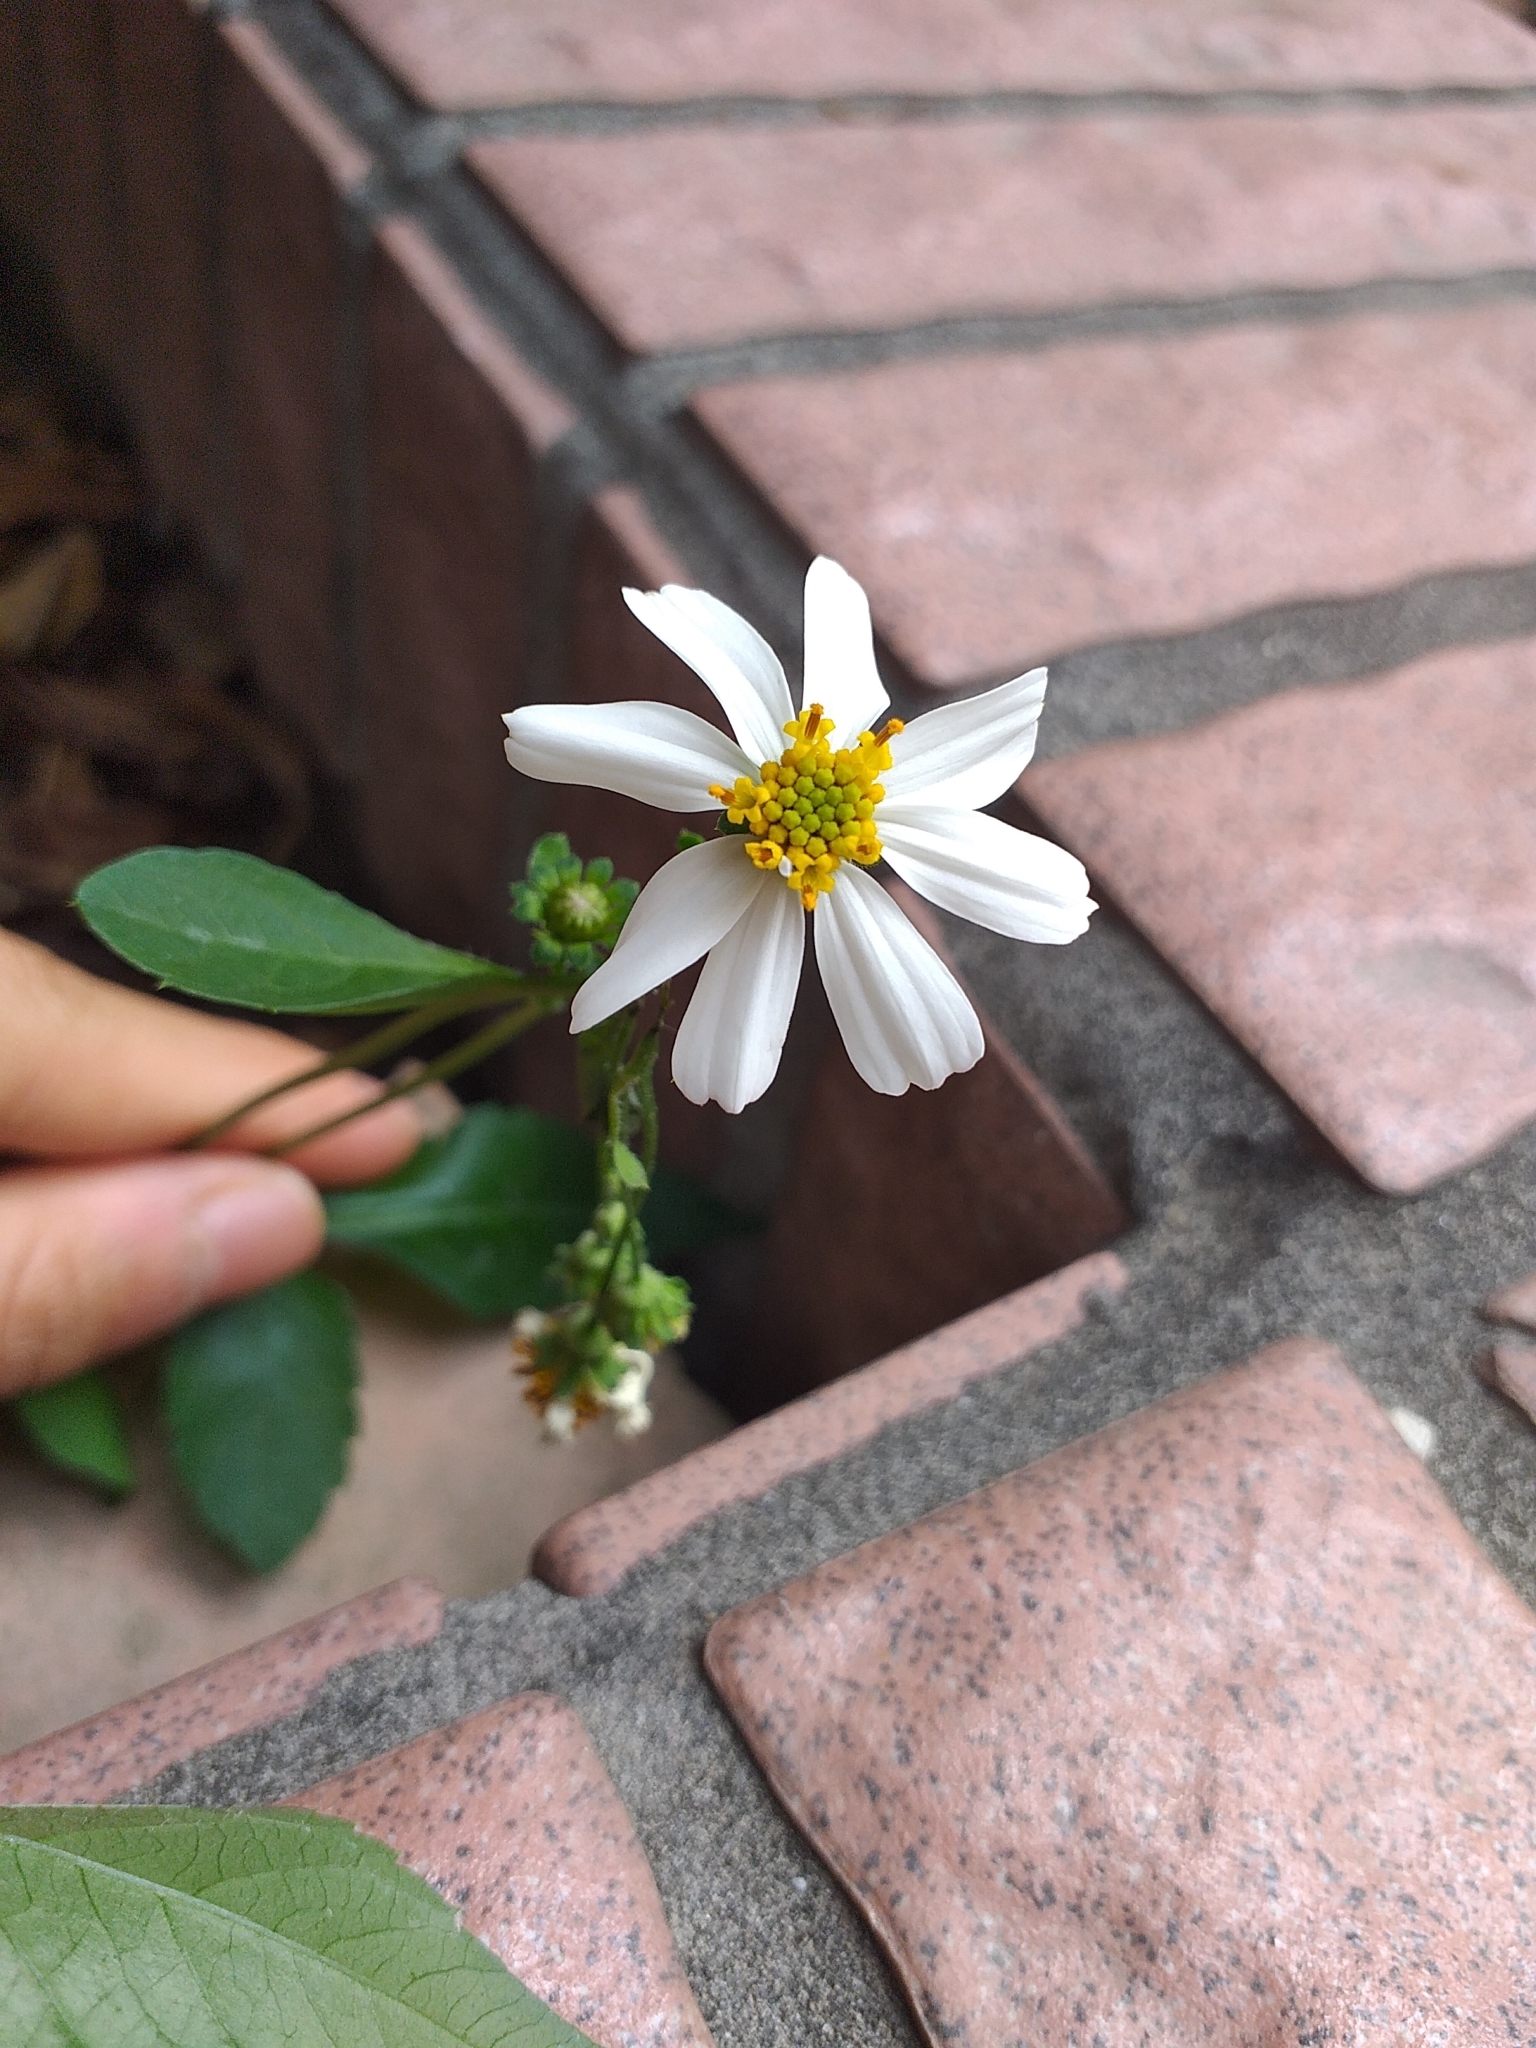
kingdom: Plantae
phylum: Tracheophyta
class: Magnoliopsida
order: Asterales
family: Asteraceae
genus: Bidens
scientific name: Bidens alba
